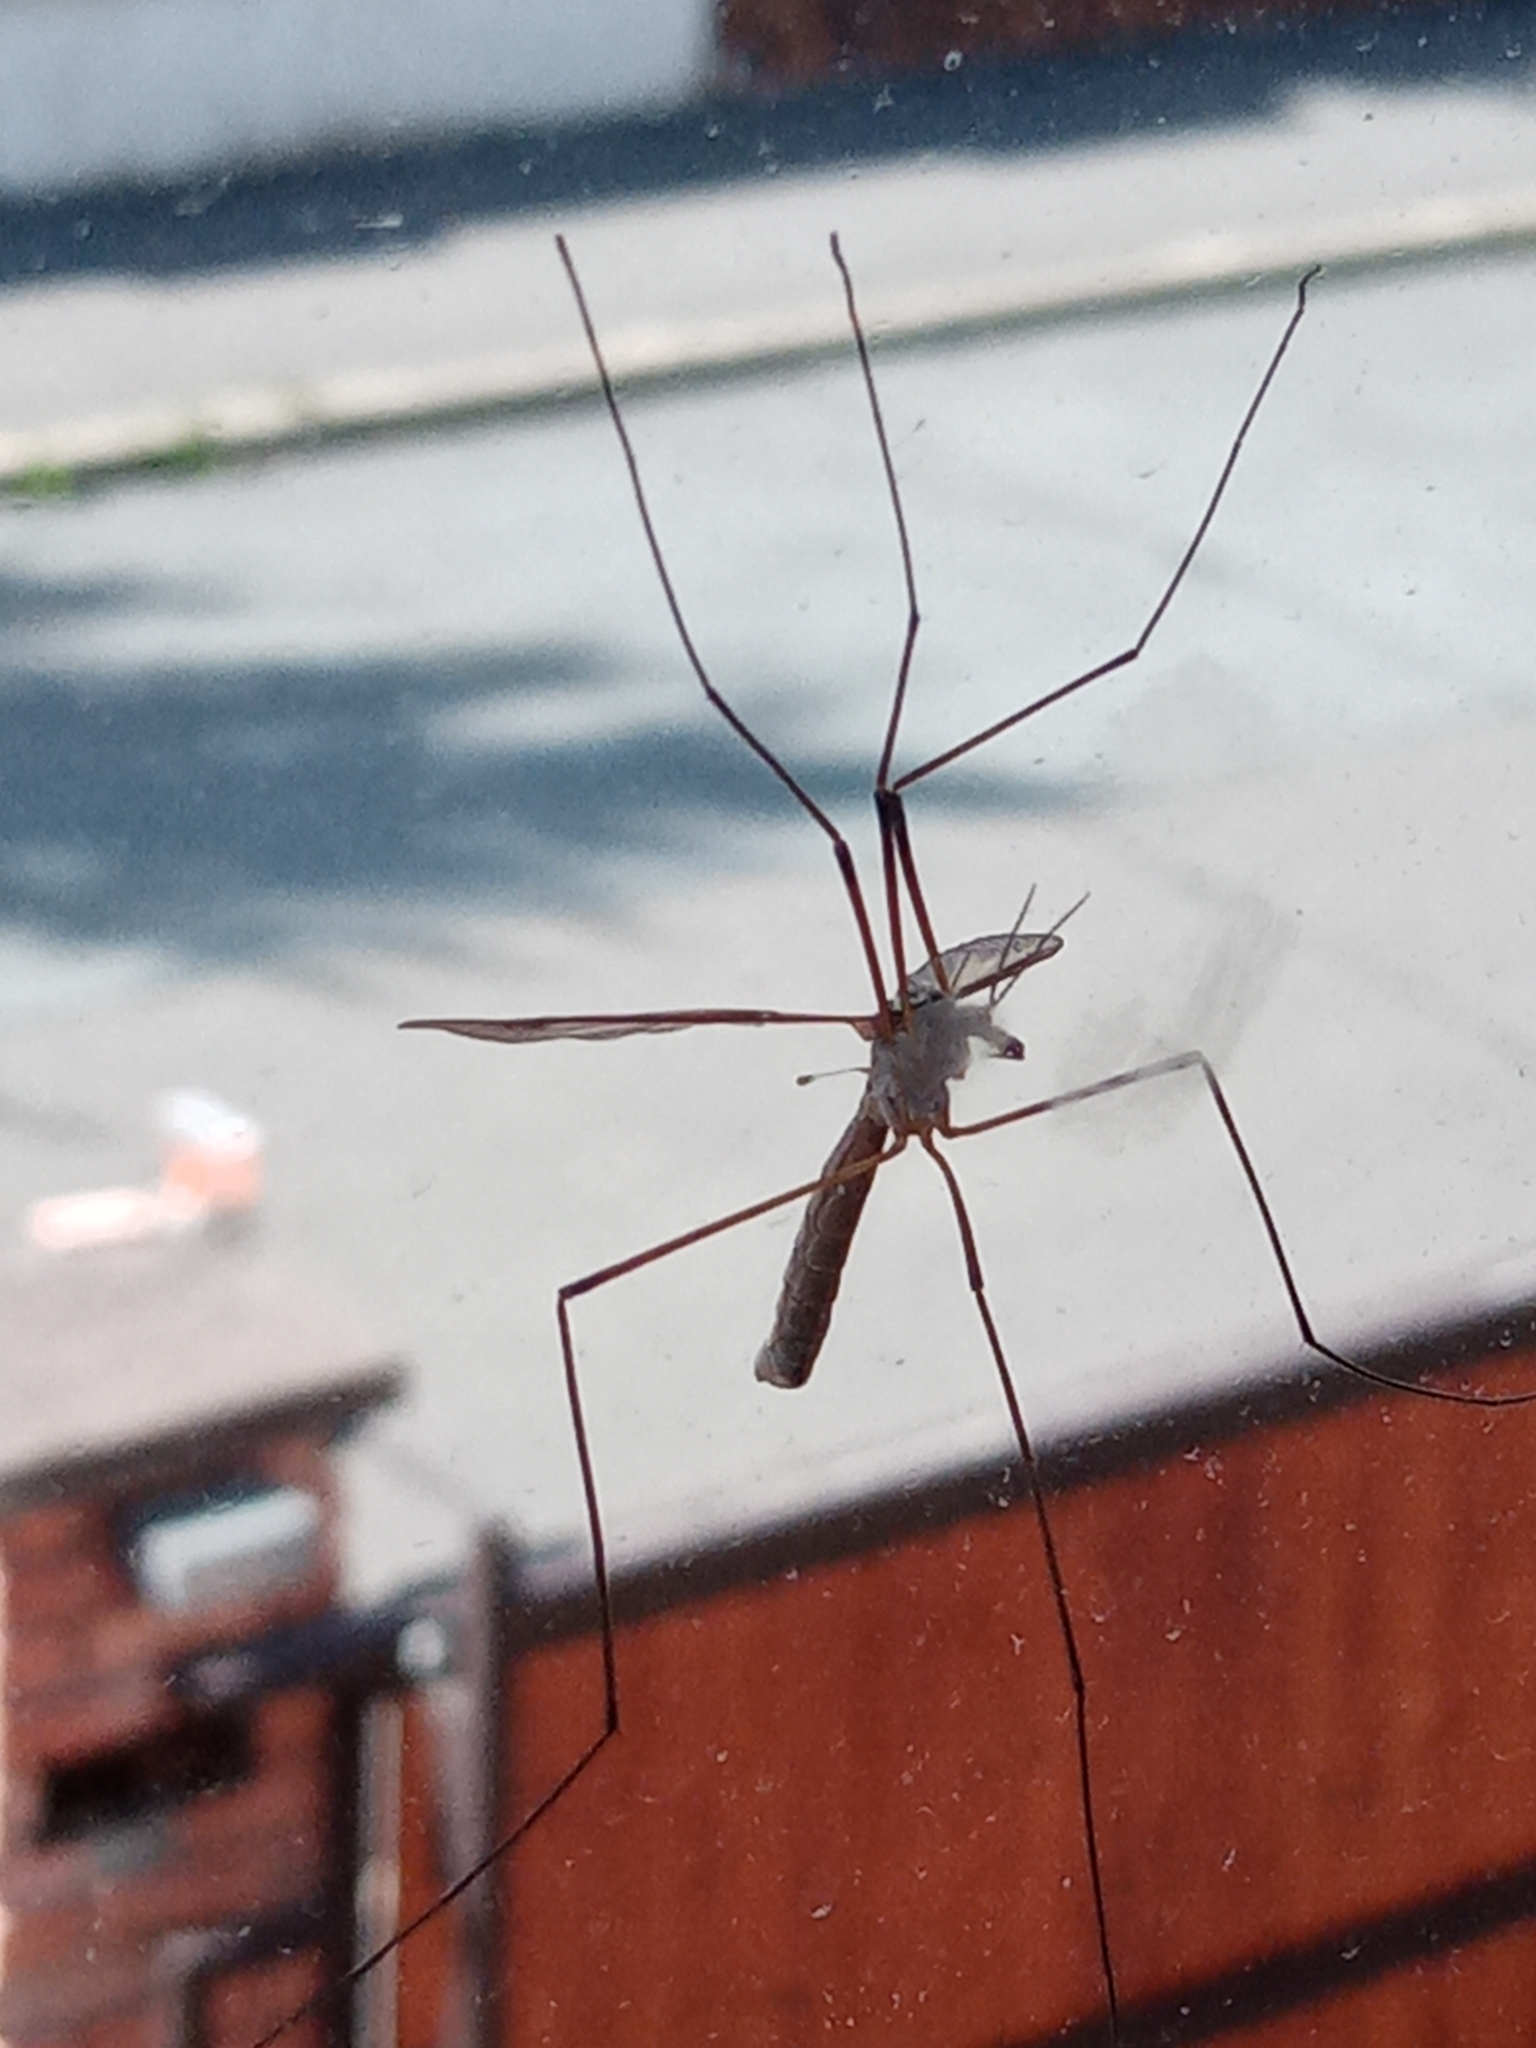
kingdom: Animalia
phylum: Arthropoda
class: Insecta
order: Diptera
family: Tipulidae
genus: Tipula
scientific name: Tipula
